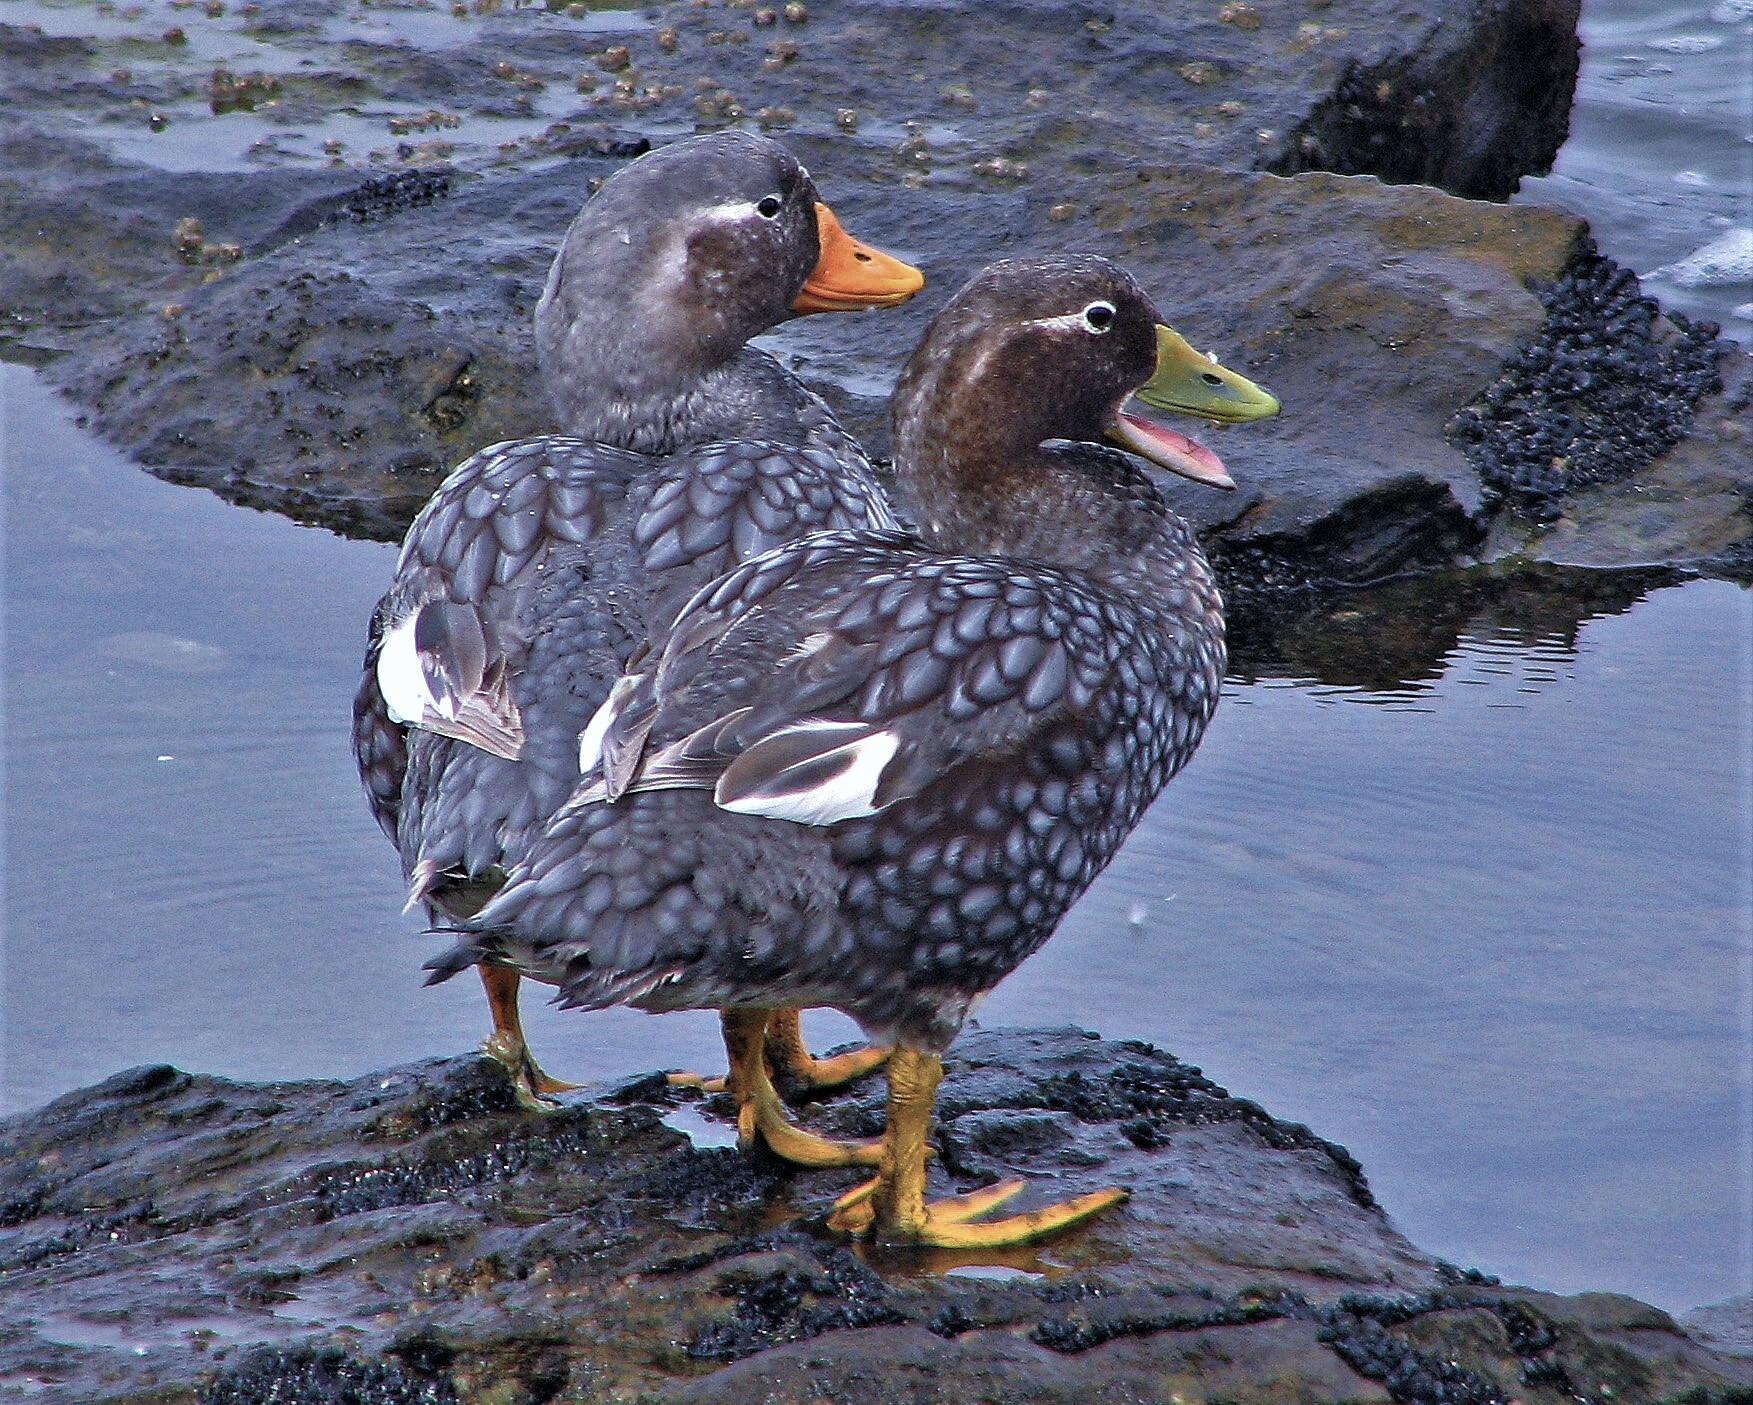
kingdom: Animalia
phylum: Chordata
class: Aves
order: Anseriformes
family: Anatidae
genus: Tachyeres
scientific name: Tachyeres brachypterus
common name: Falkland steamer duck
